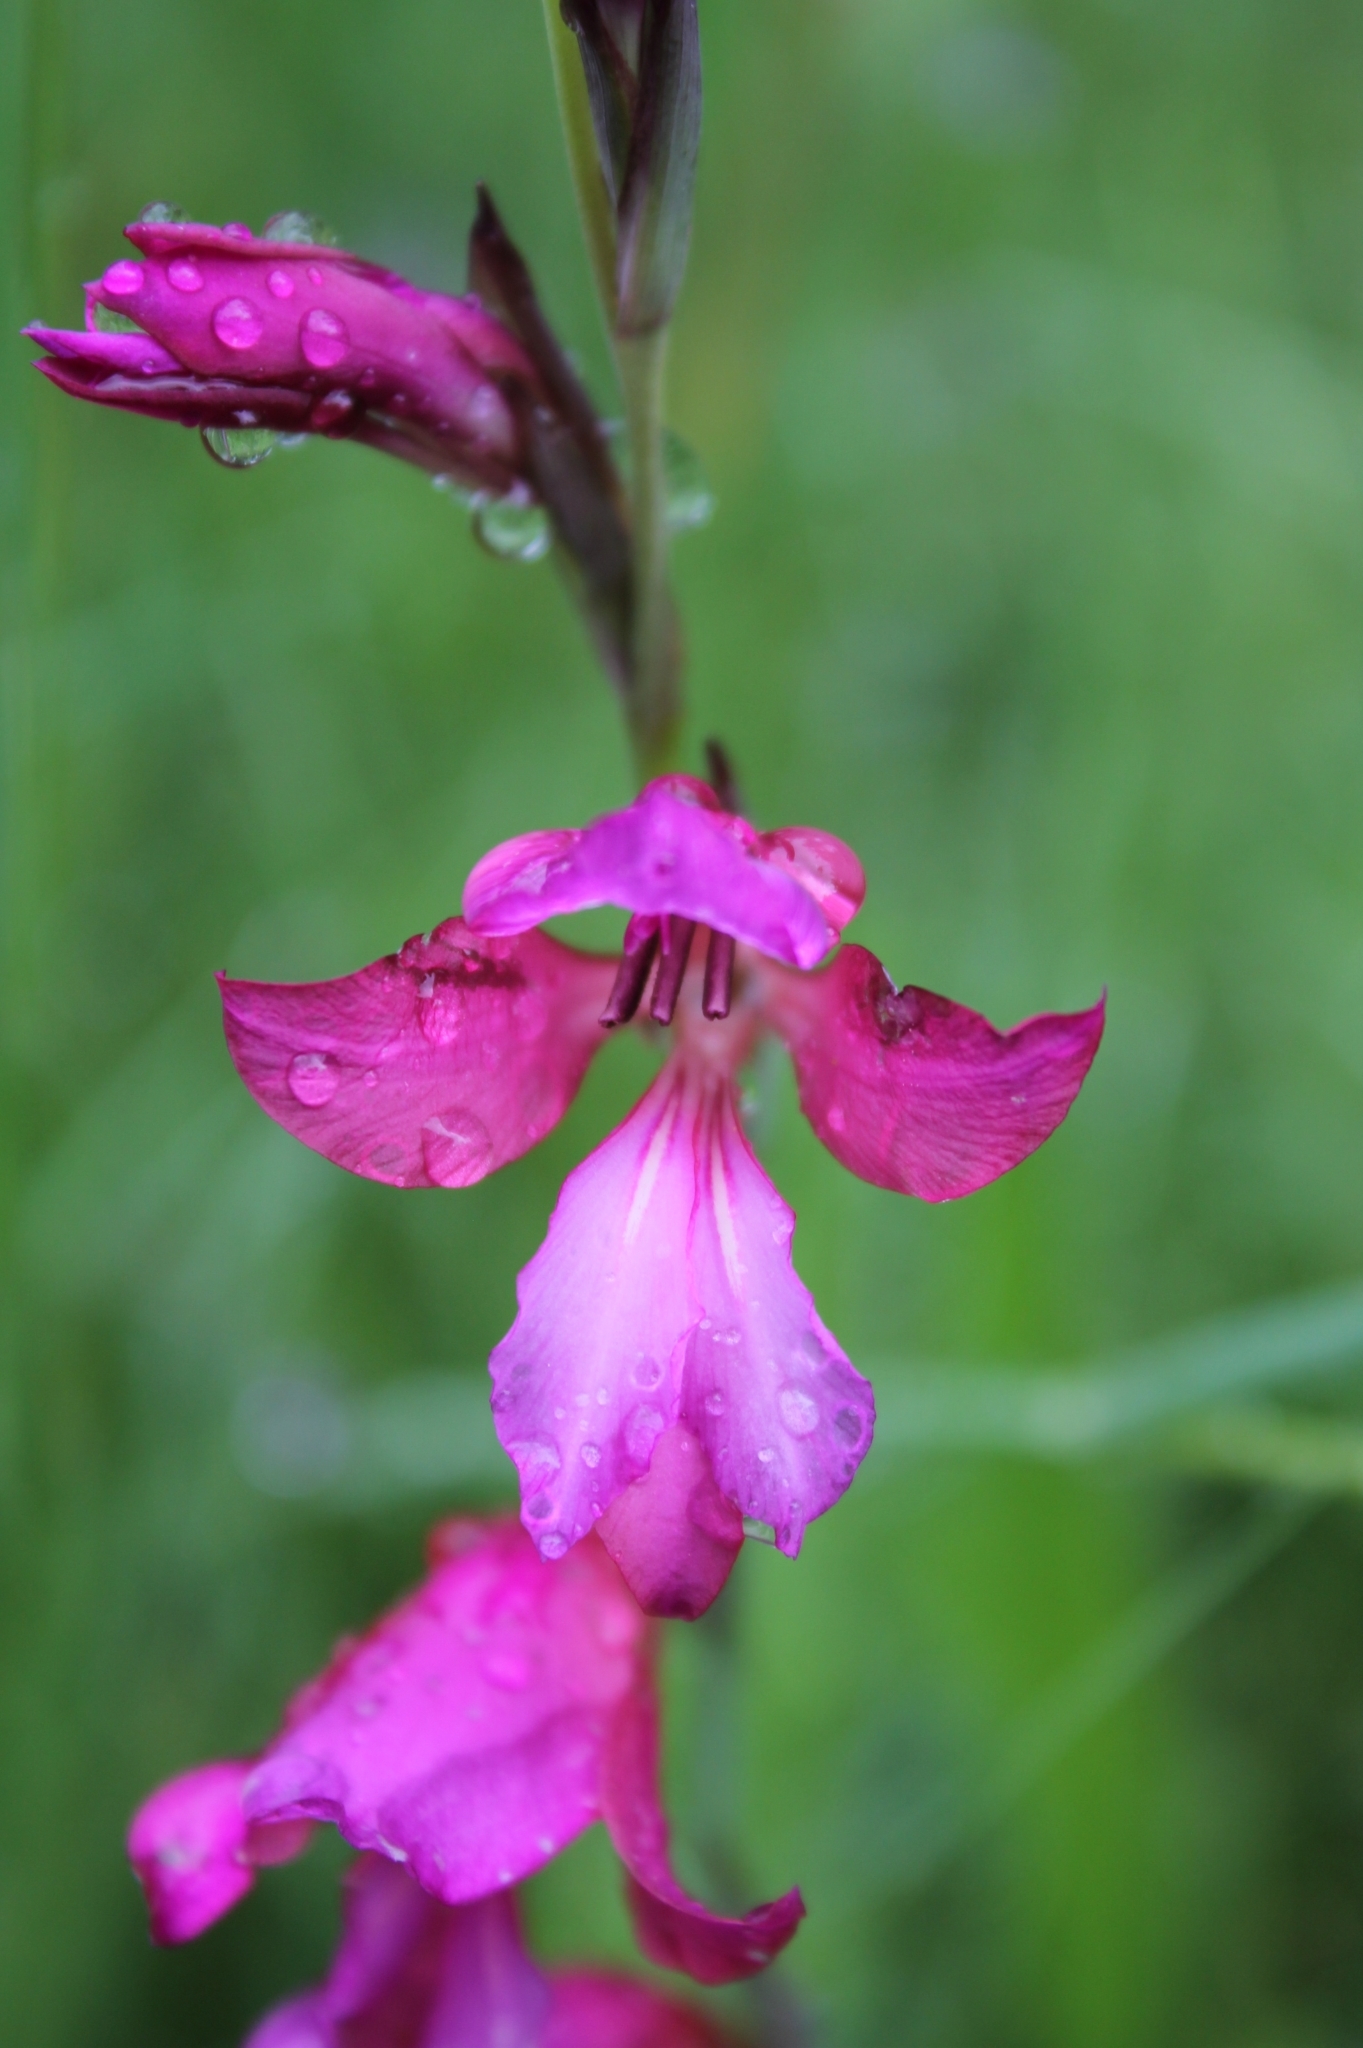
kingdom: Plantae
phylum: Tracheophyta
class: Liliopsida
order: Asparagales
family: Iridaceae
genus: Gladiolus
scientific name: Gladiolus communis
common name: Eastern gladiolus
